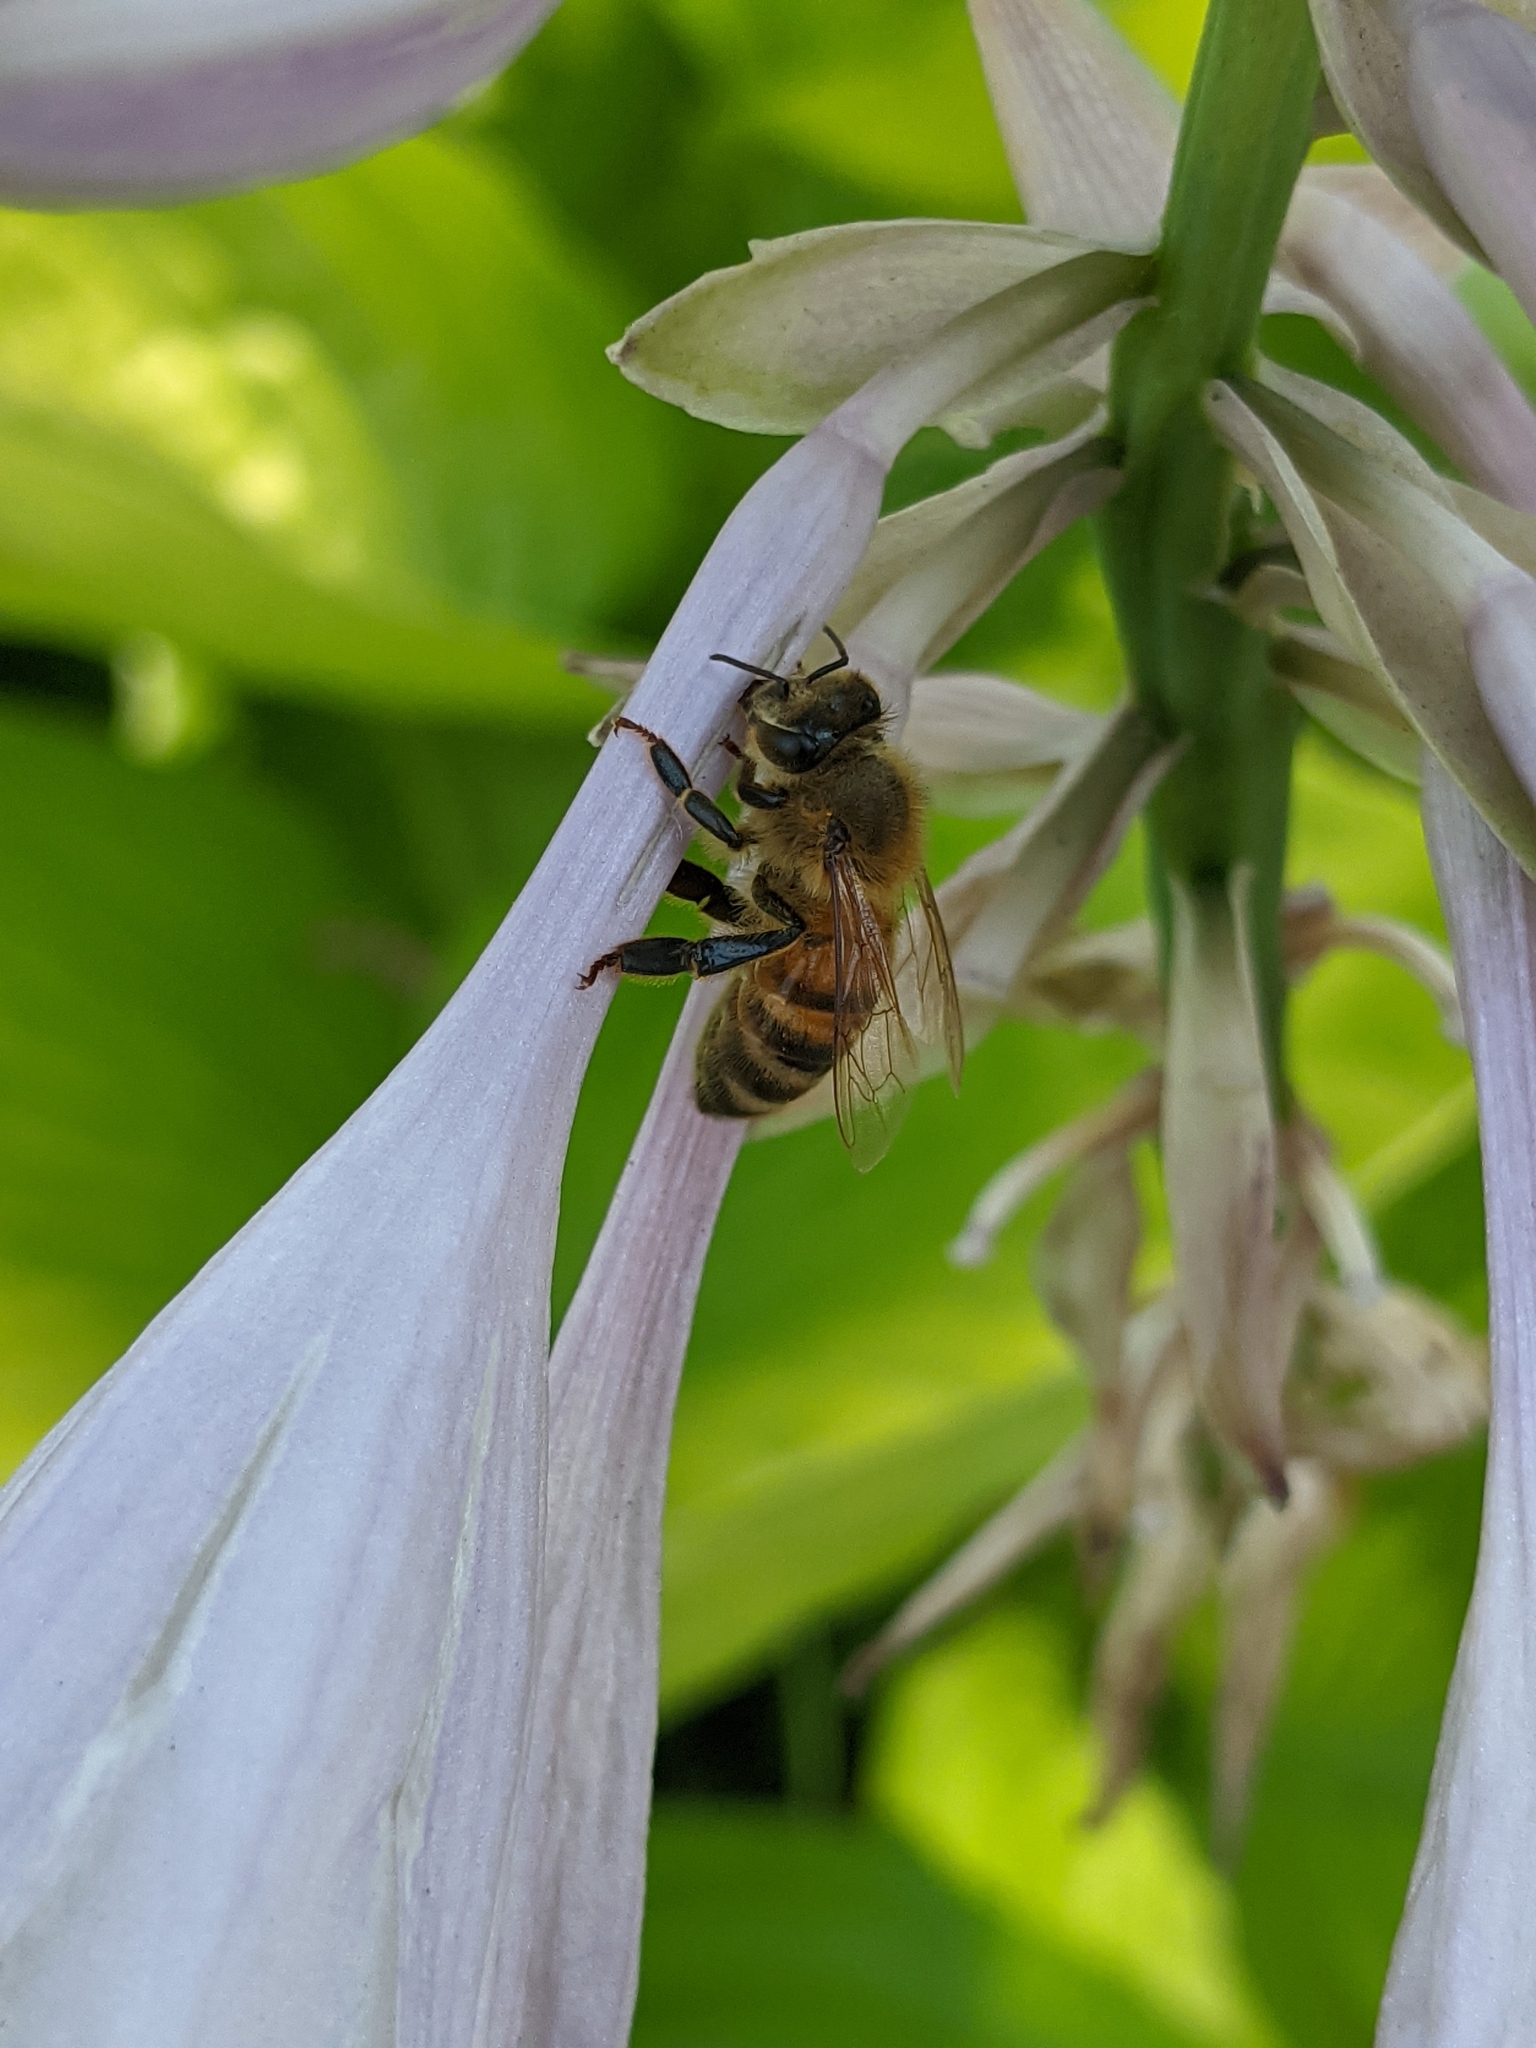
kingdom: Animalia
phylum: Arthropoda
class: Insecta
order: Hymenoptera
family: Apidae
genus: Apis
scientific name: Apis mellifera
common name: Honey bee
